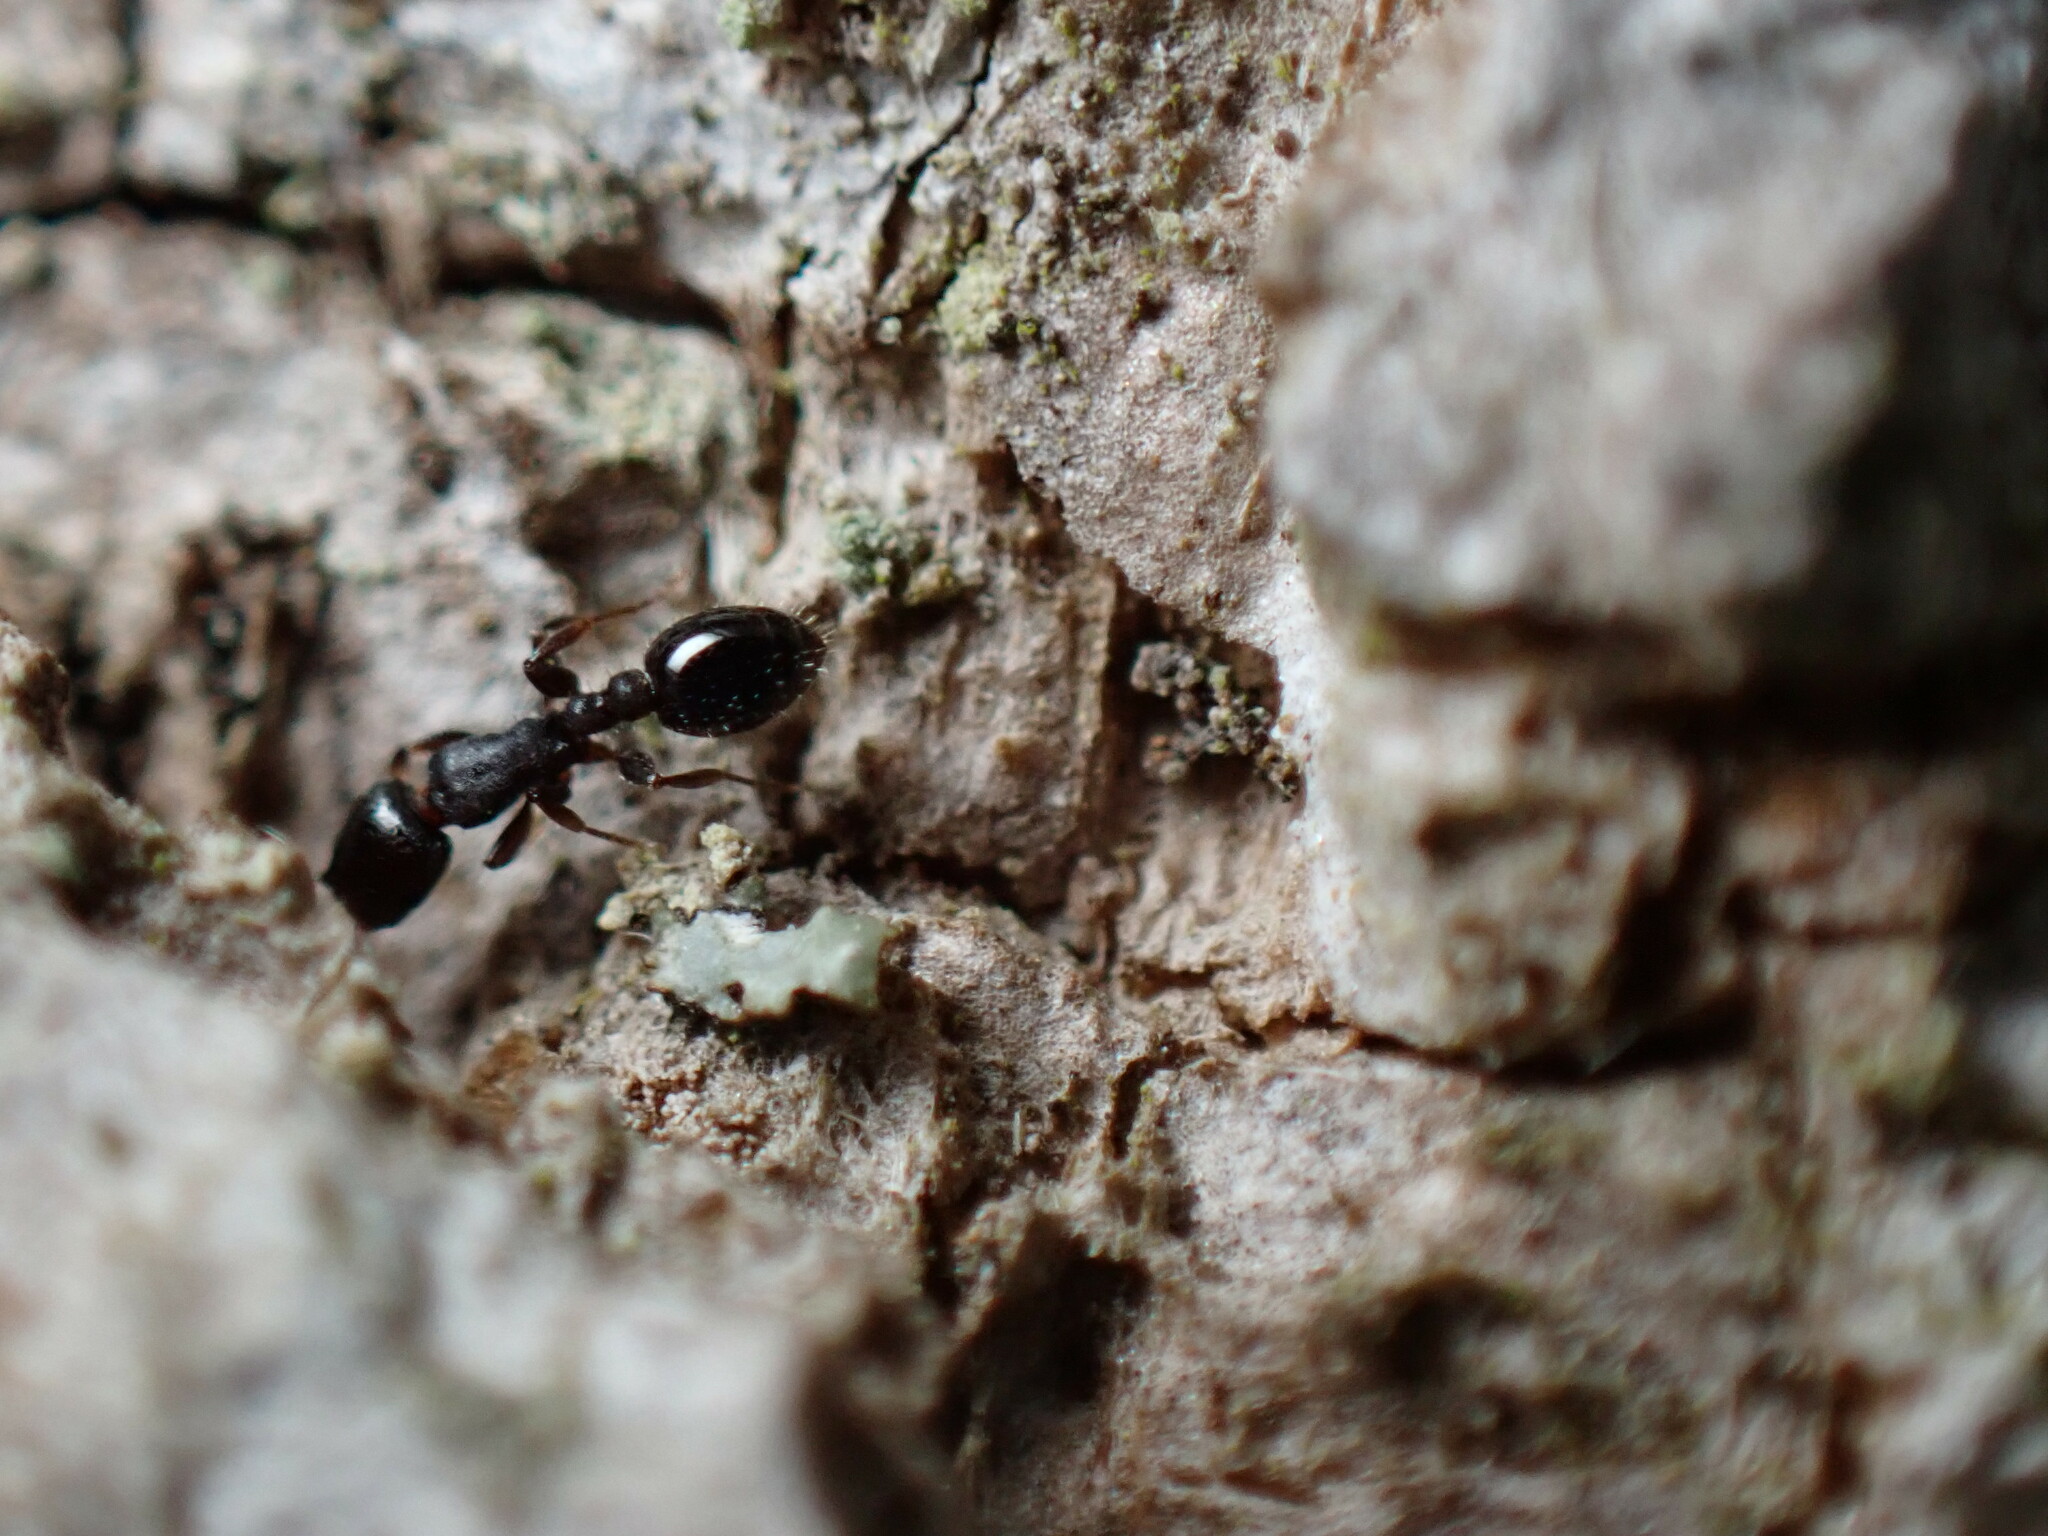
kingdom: Animalia
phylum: Arthropoda
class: Insecta
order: Hymenoptera
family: Formicidae
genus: Leptothorax
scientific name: Leptothorax schaumii
